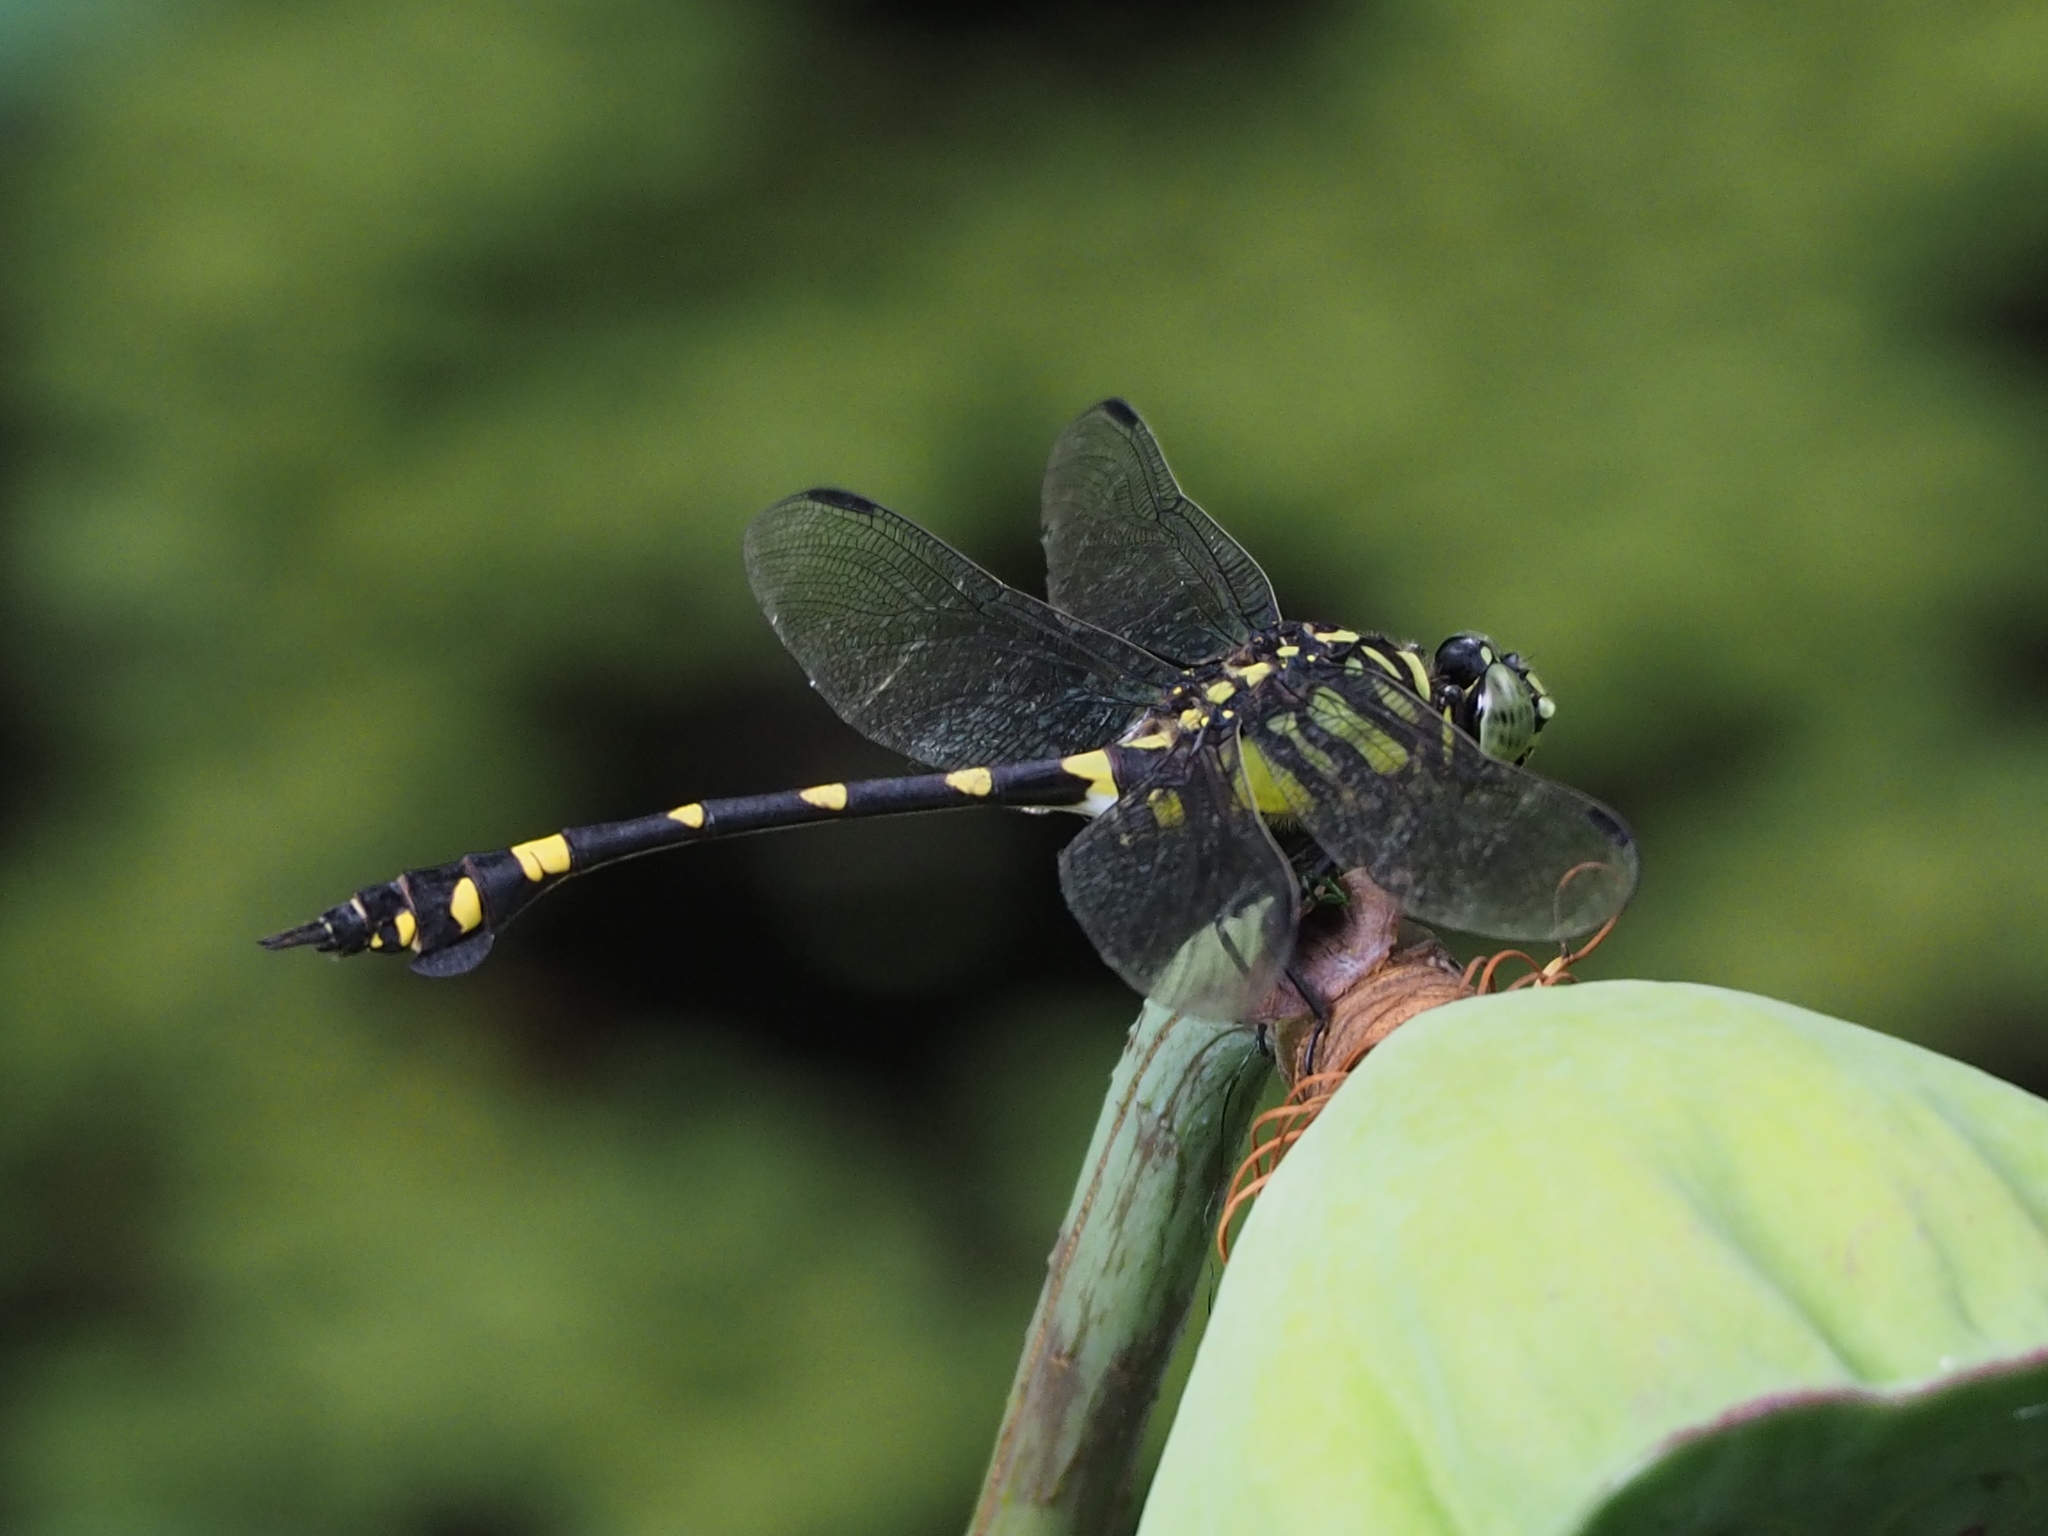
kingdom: Animalia
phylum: Arthropoda
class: Insecta
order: Odonata
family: Gomphidae
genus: Ictinogomphus
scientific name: Ictinogomphus rapax
